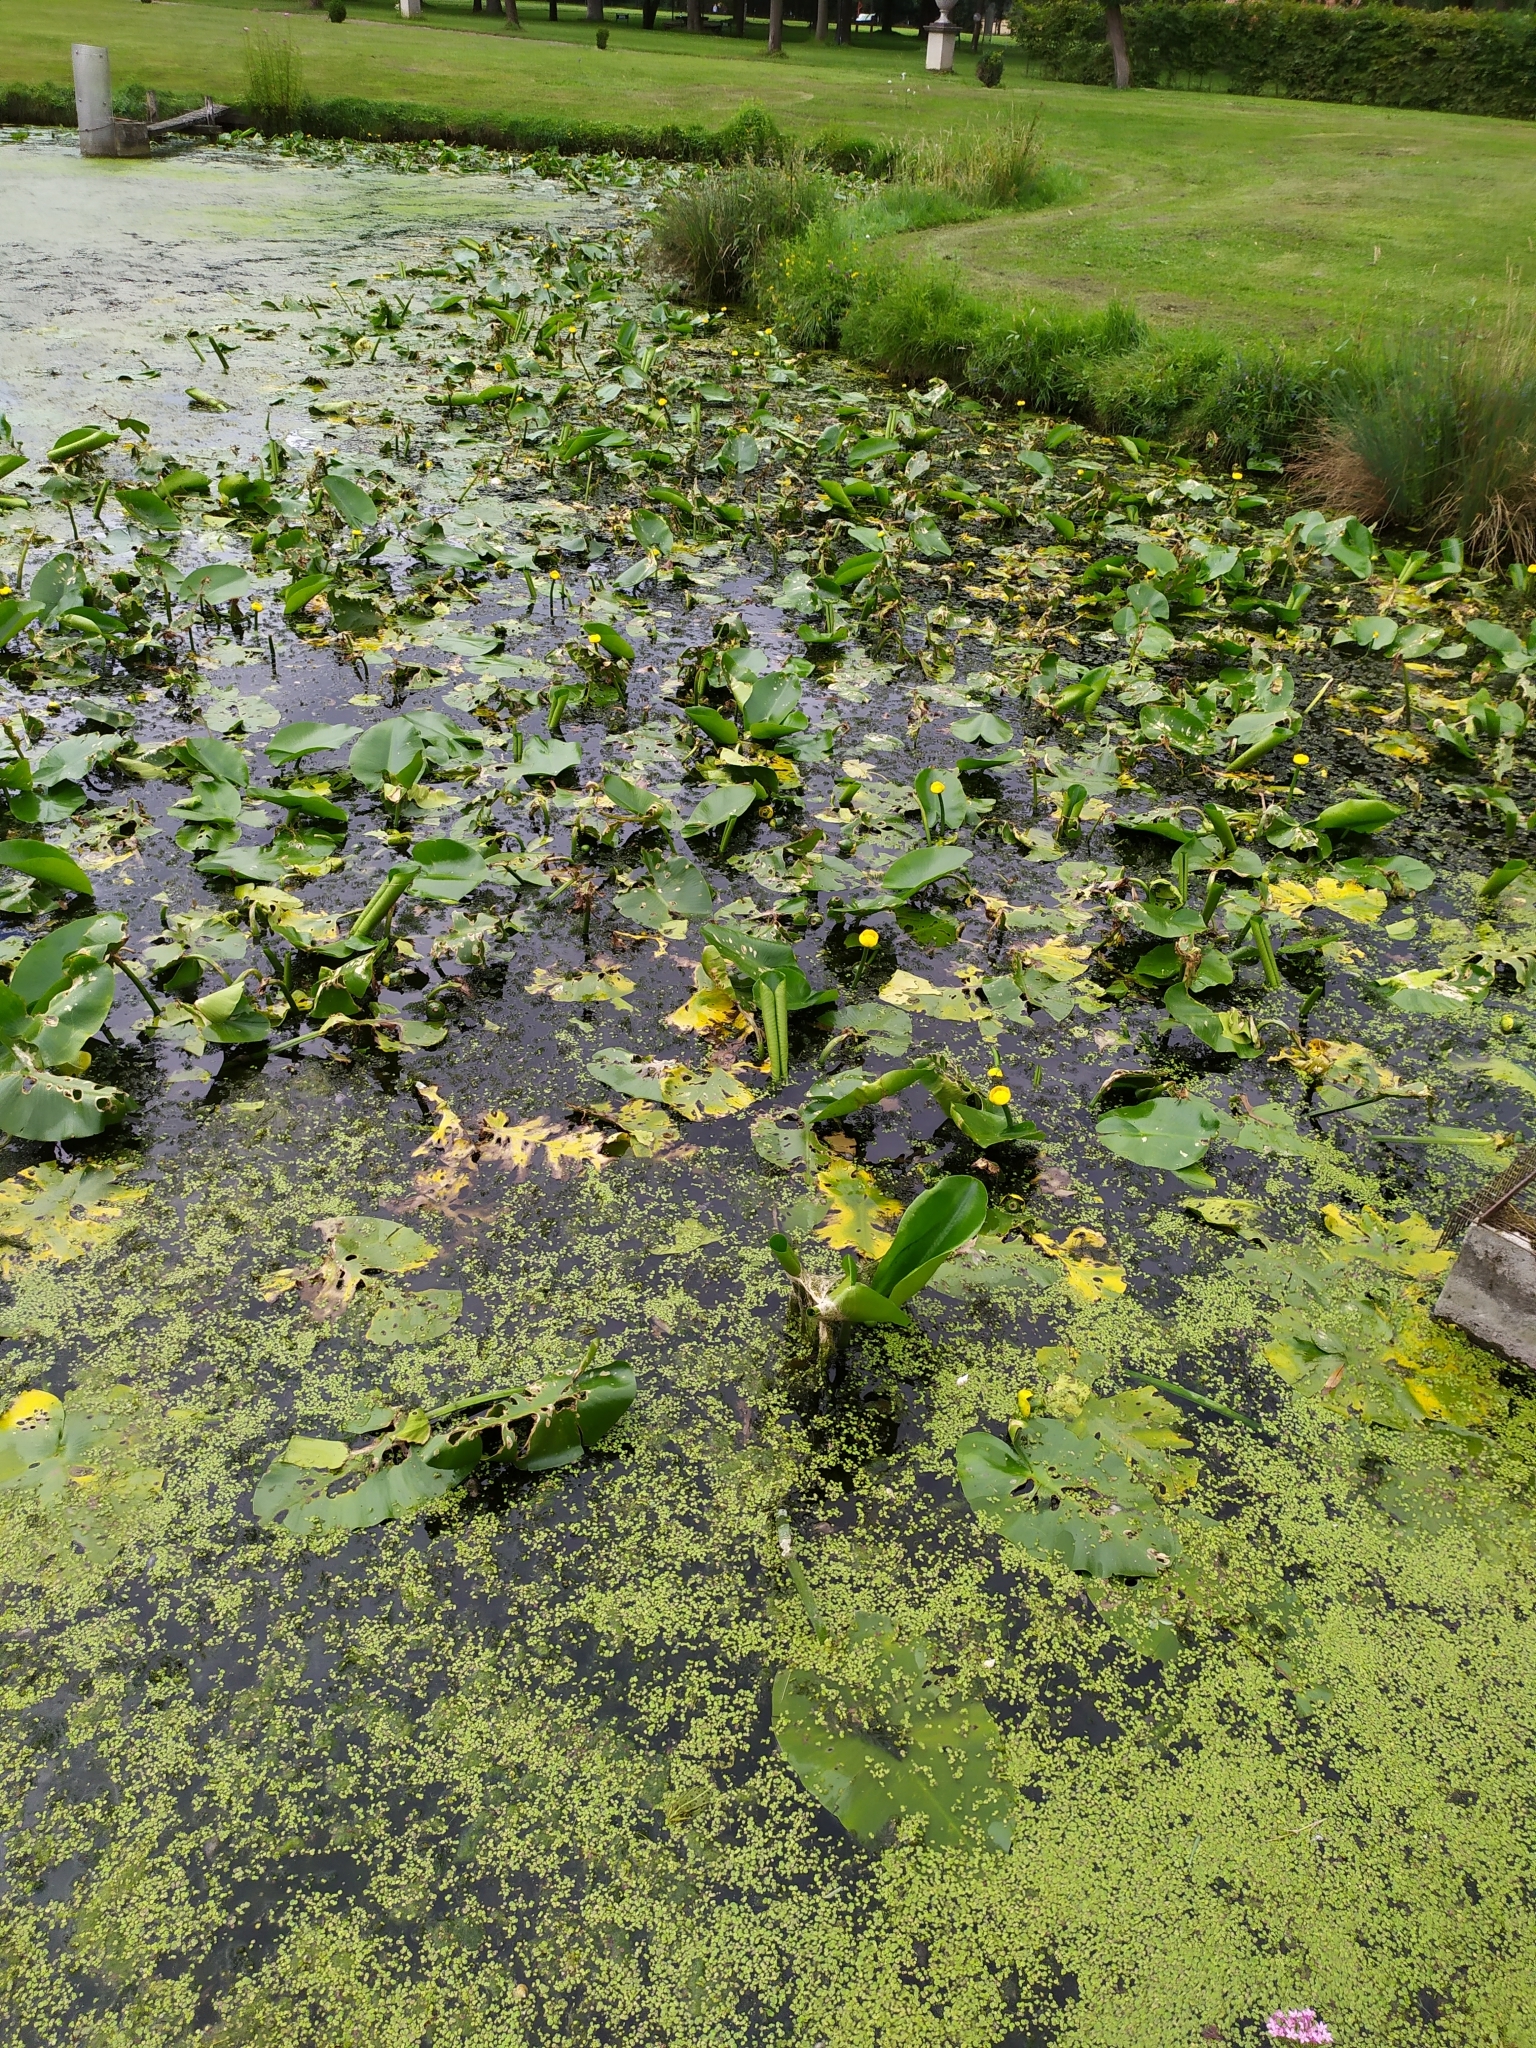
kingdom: Plantae
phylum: Tracheophyta
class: Magnoliopsida
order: Nymphaeales
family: Nymphaeaceae
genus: Nuphar
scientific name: Nuphar lutea
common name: Yellow water-lily
